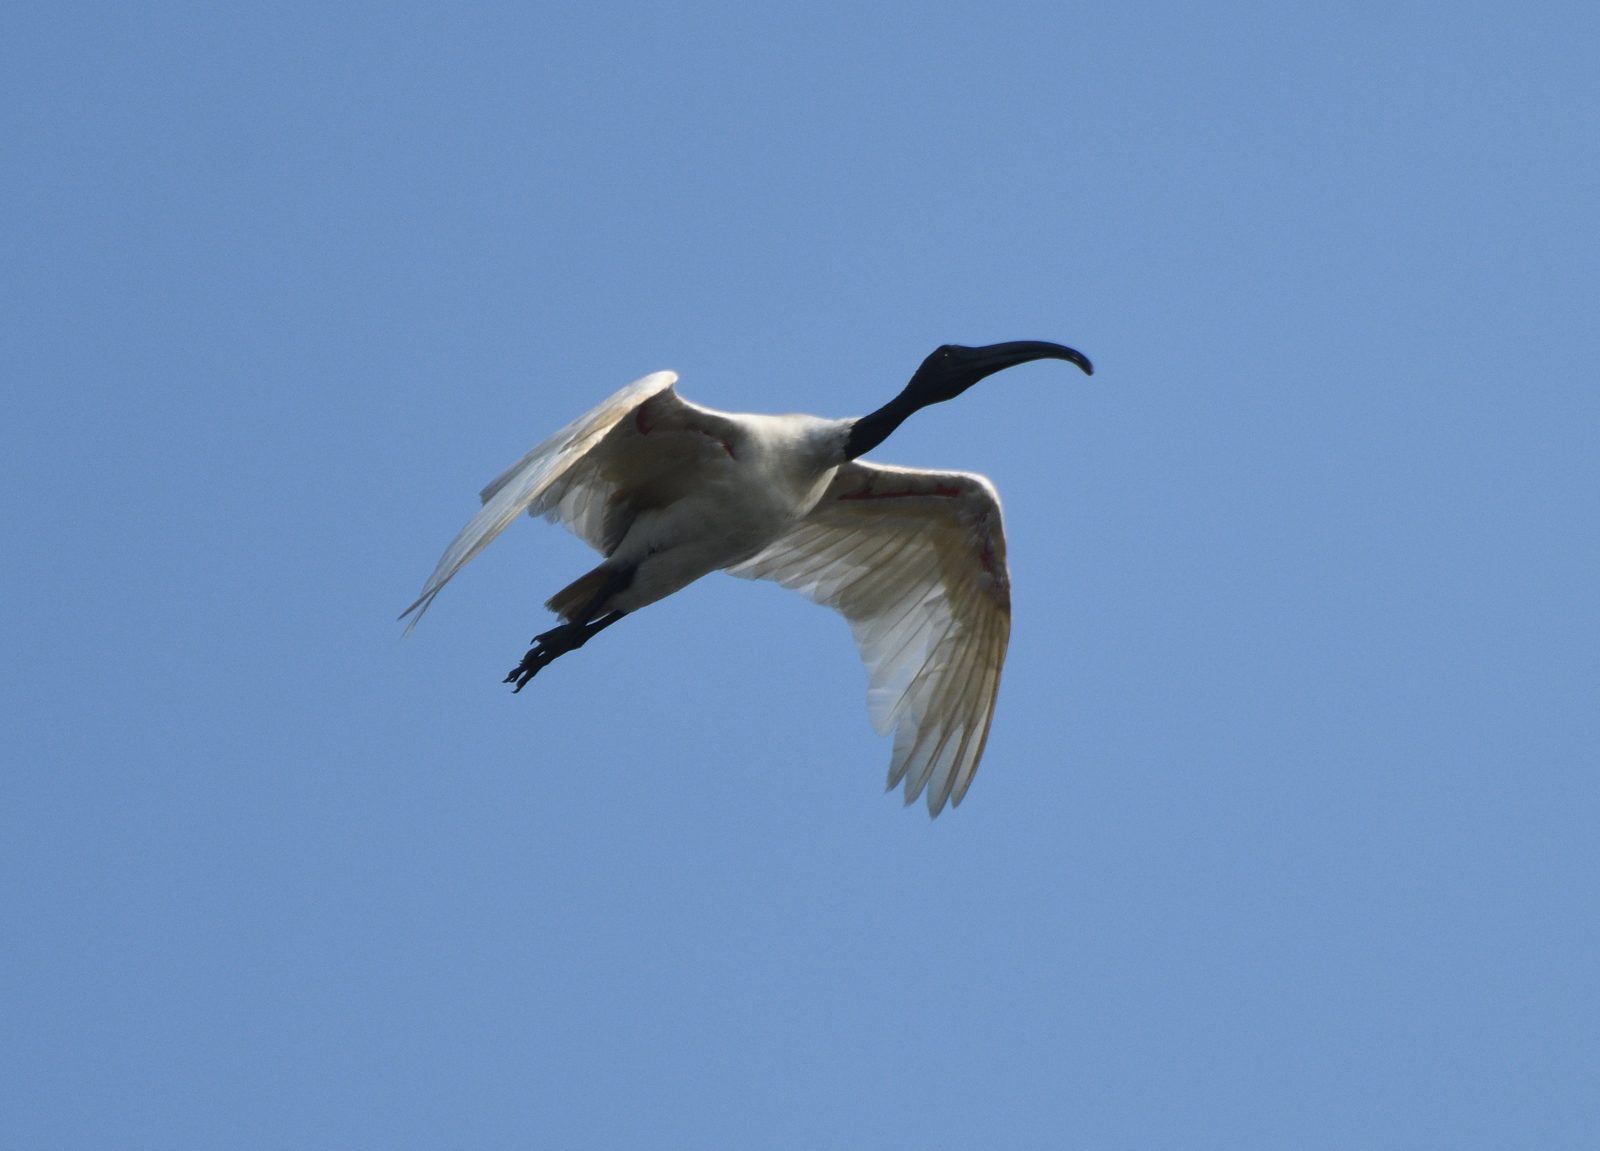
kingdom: Animalia
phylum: Chordata
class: Aves
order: Pelecaniformes
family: Threskiornithidae
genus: Threskiornis
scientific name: Threskiornis melanocephalus
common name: Black-headed ibis
